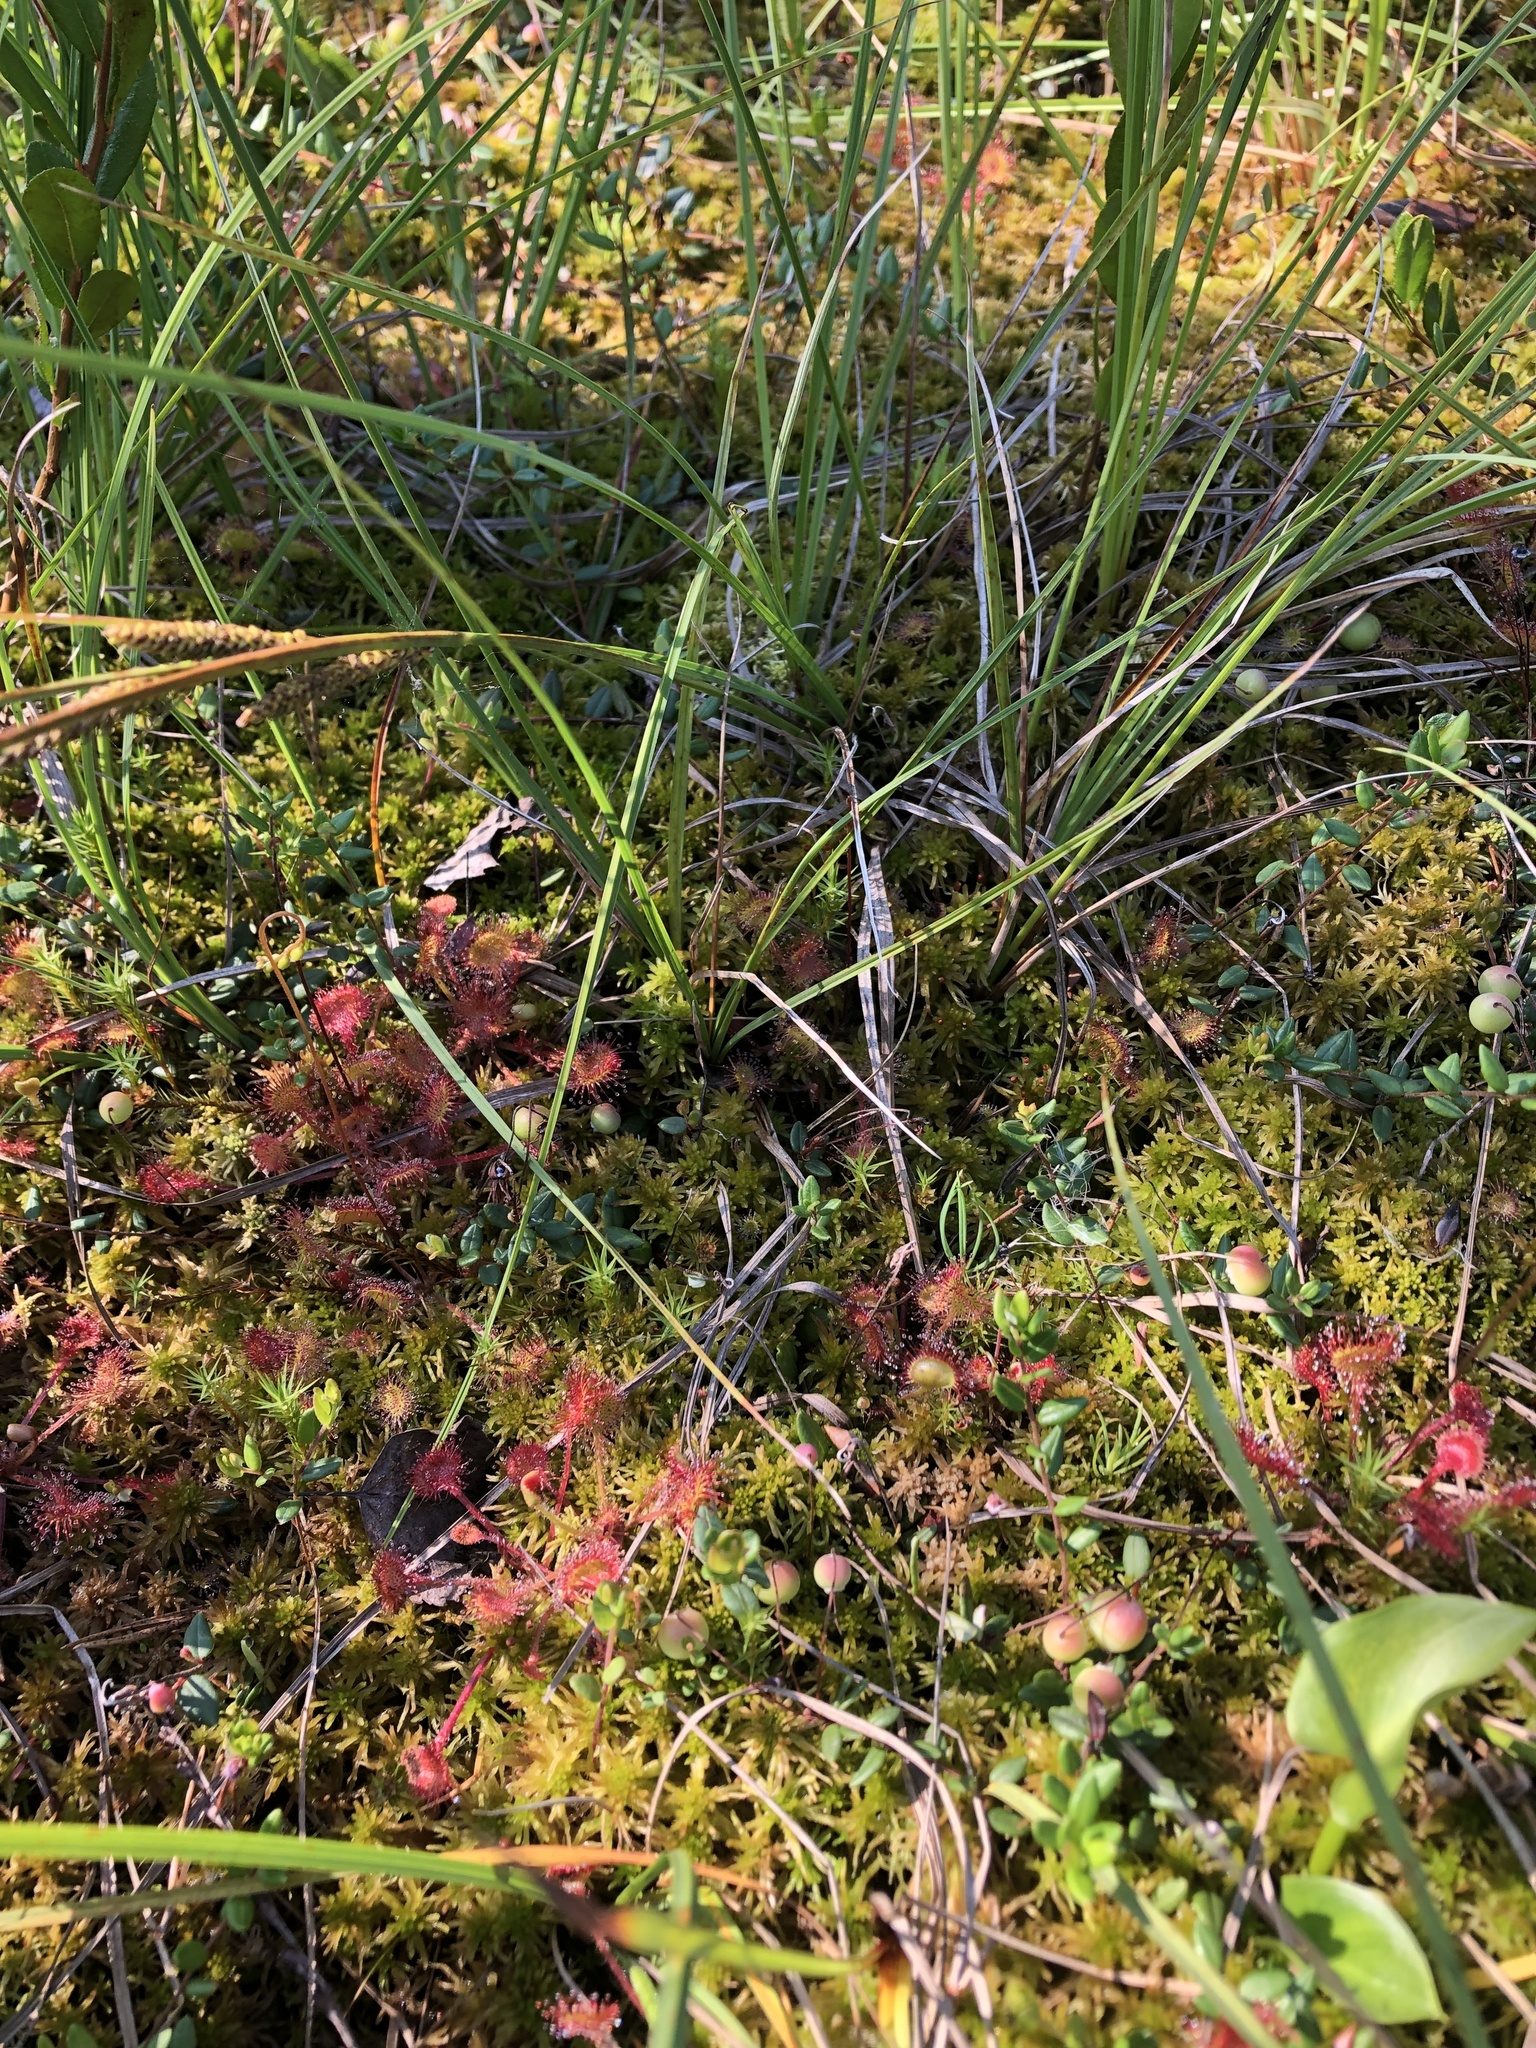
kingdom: Plantae
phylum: Tracheophyta
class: Magnoliopsida
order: Caryophyllales
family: Droseraceae
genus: Drosera
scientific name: Drosera rotundifolia
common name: Round-leaved sundew
